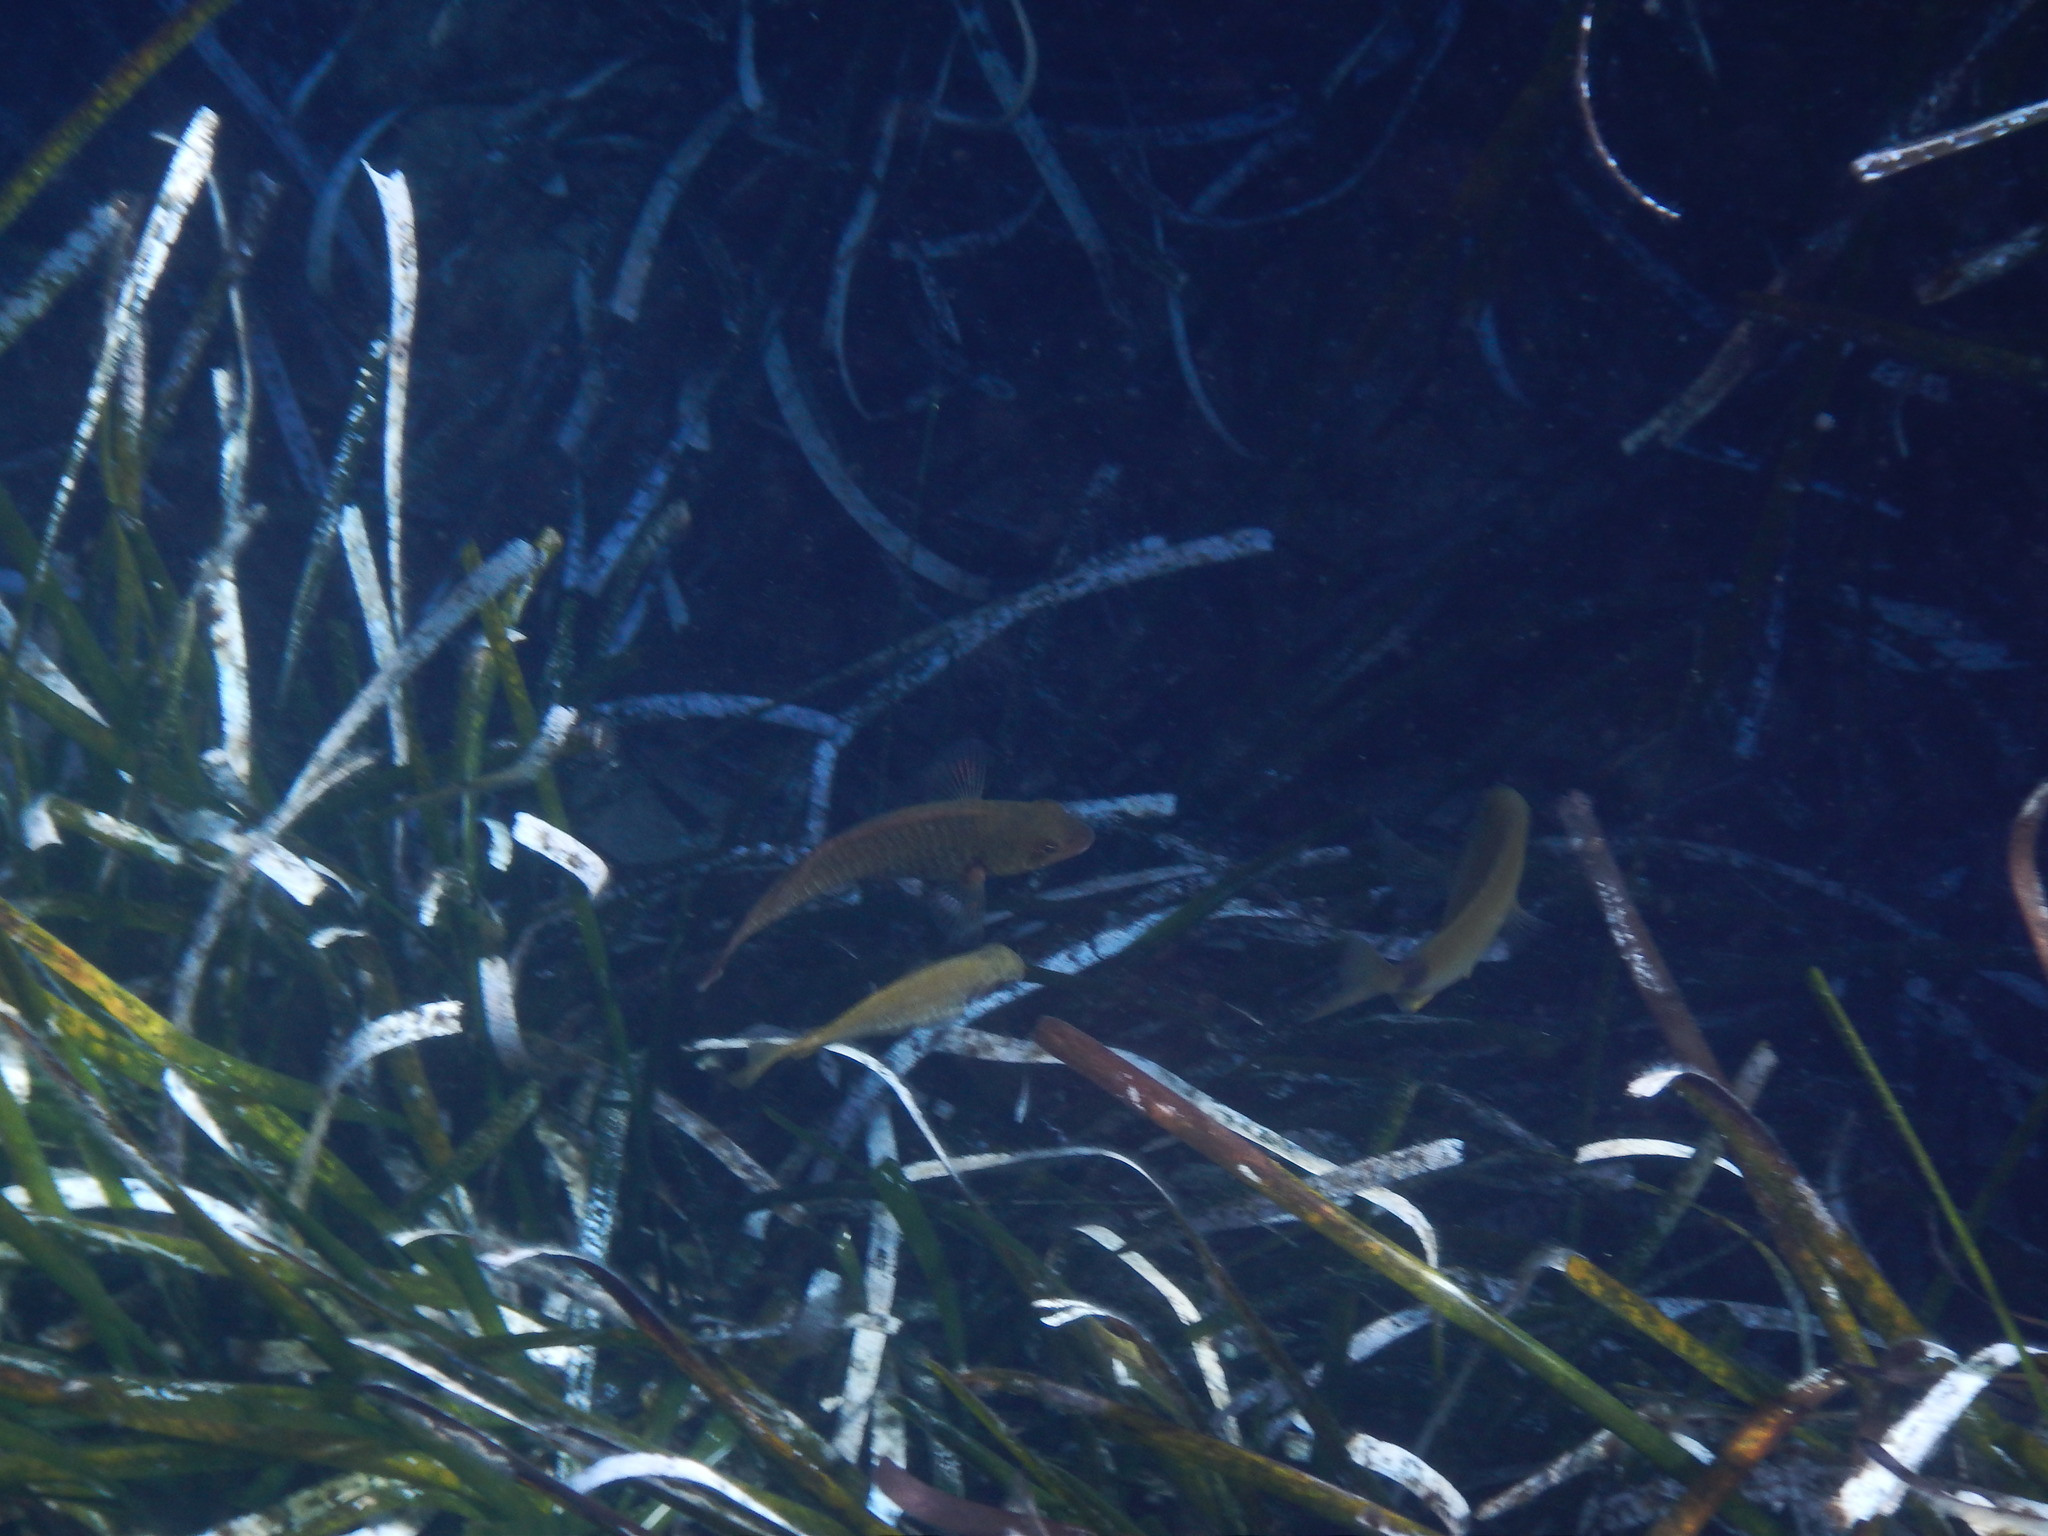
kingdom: Animalia
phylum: Chordata
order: Perciformes
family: Scaridae
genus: Sparisoma
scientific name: Sparisoma cretense
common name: Parrotfish
